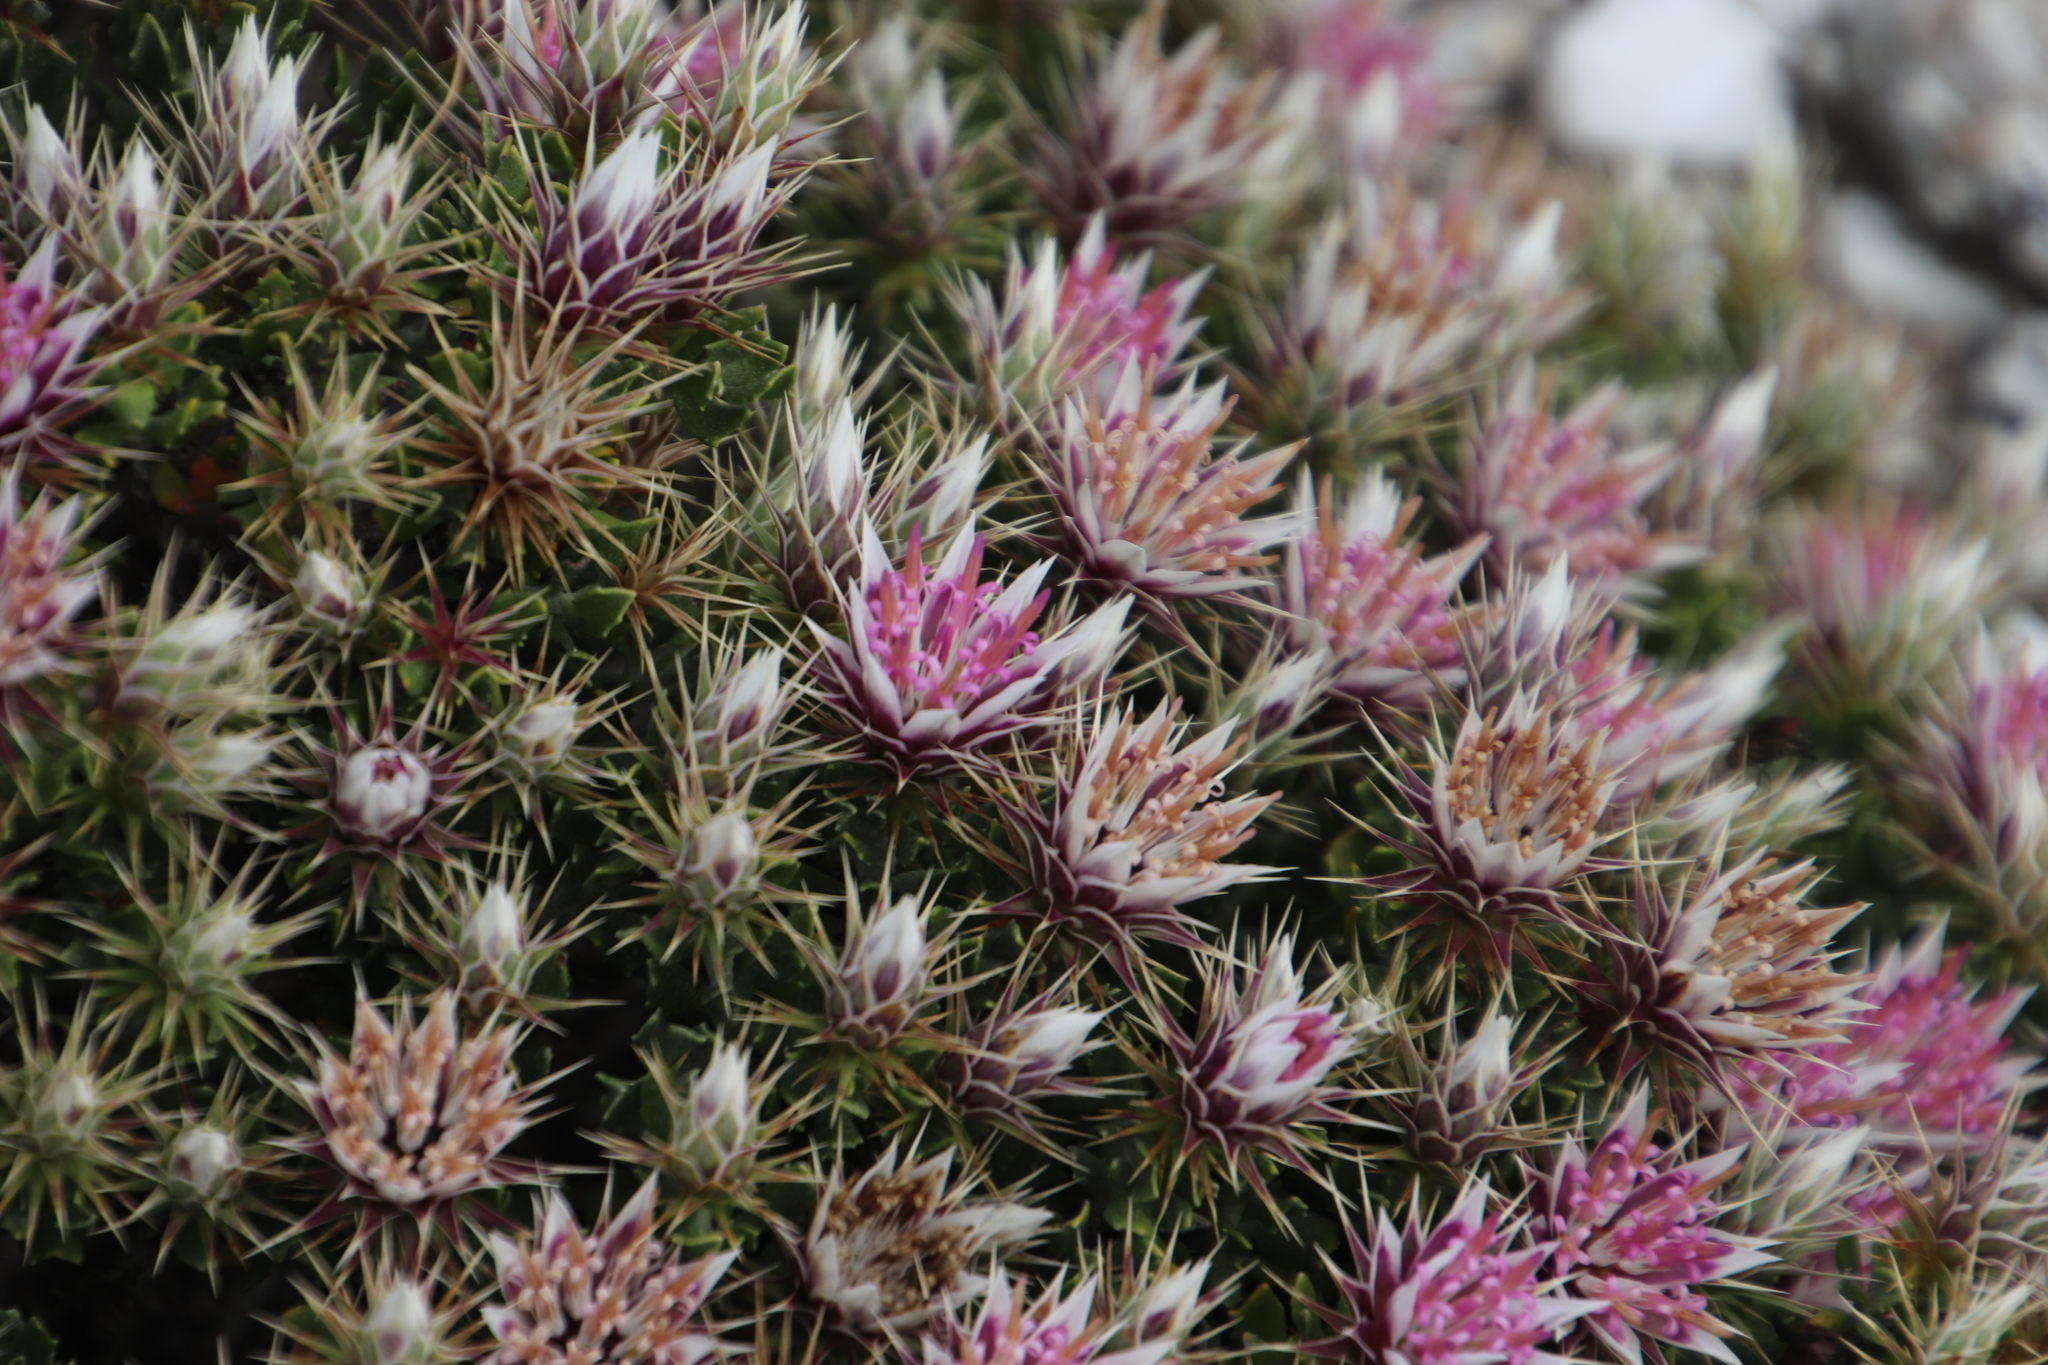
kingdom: Plantae
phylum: Tracheophyta
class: Magnoliopsida
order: Asterales
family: Asteraceae
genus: Macledium
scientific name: Macledium spinosum
